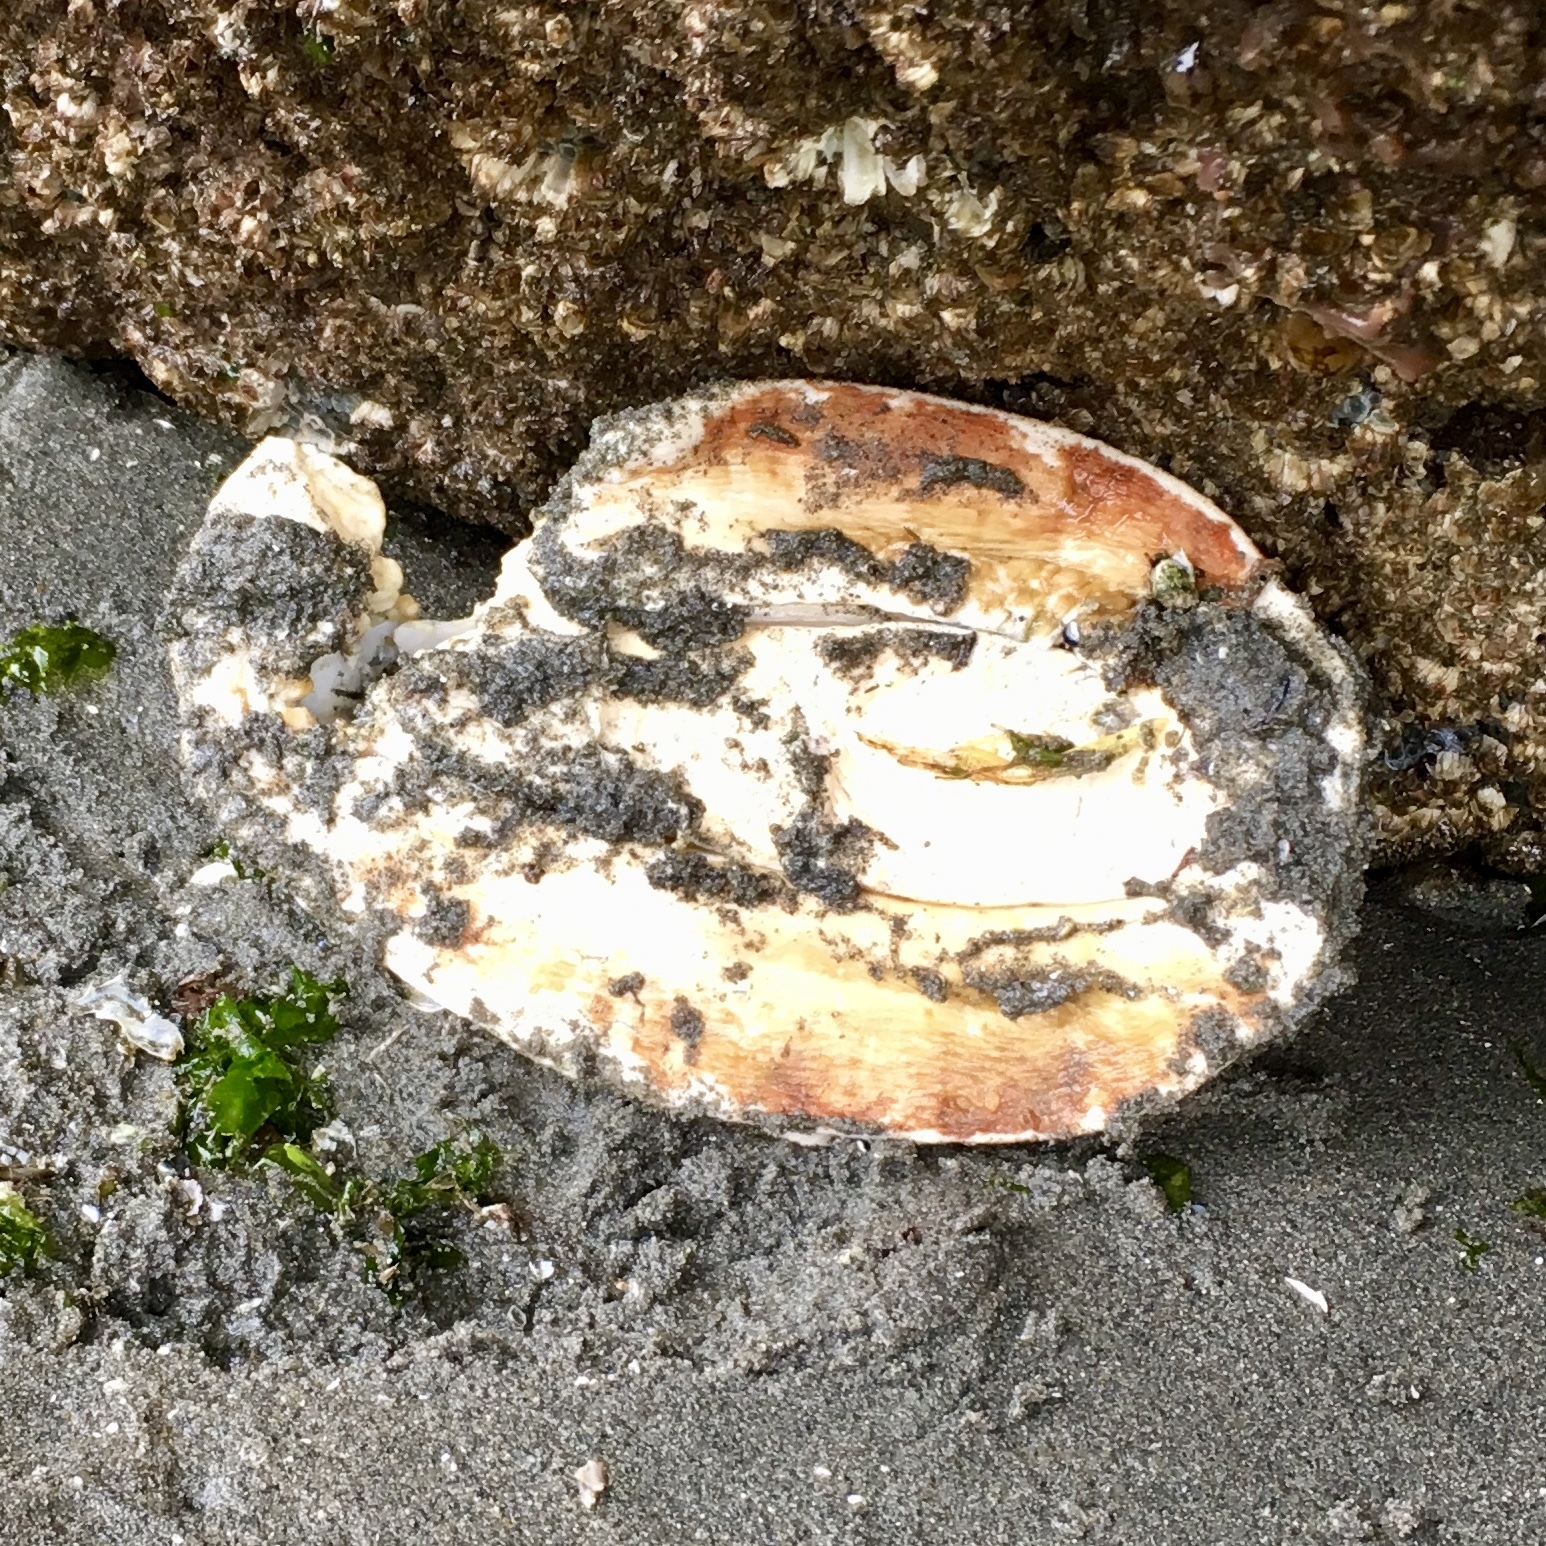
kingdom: Animalia
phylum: Mollusca
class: Polyplacophora
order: Chitonida
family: Acanthochitonidae
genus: Cryptochiton
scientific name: Cryptochiton stelleri
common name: Giant pacific chiton
